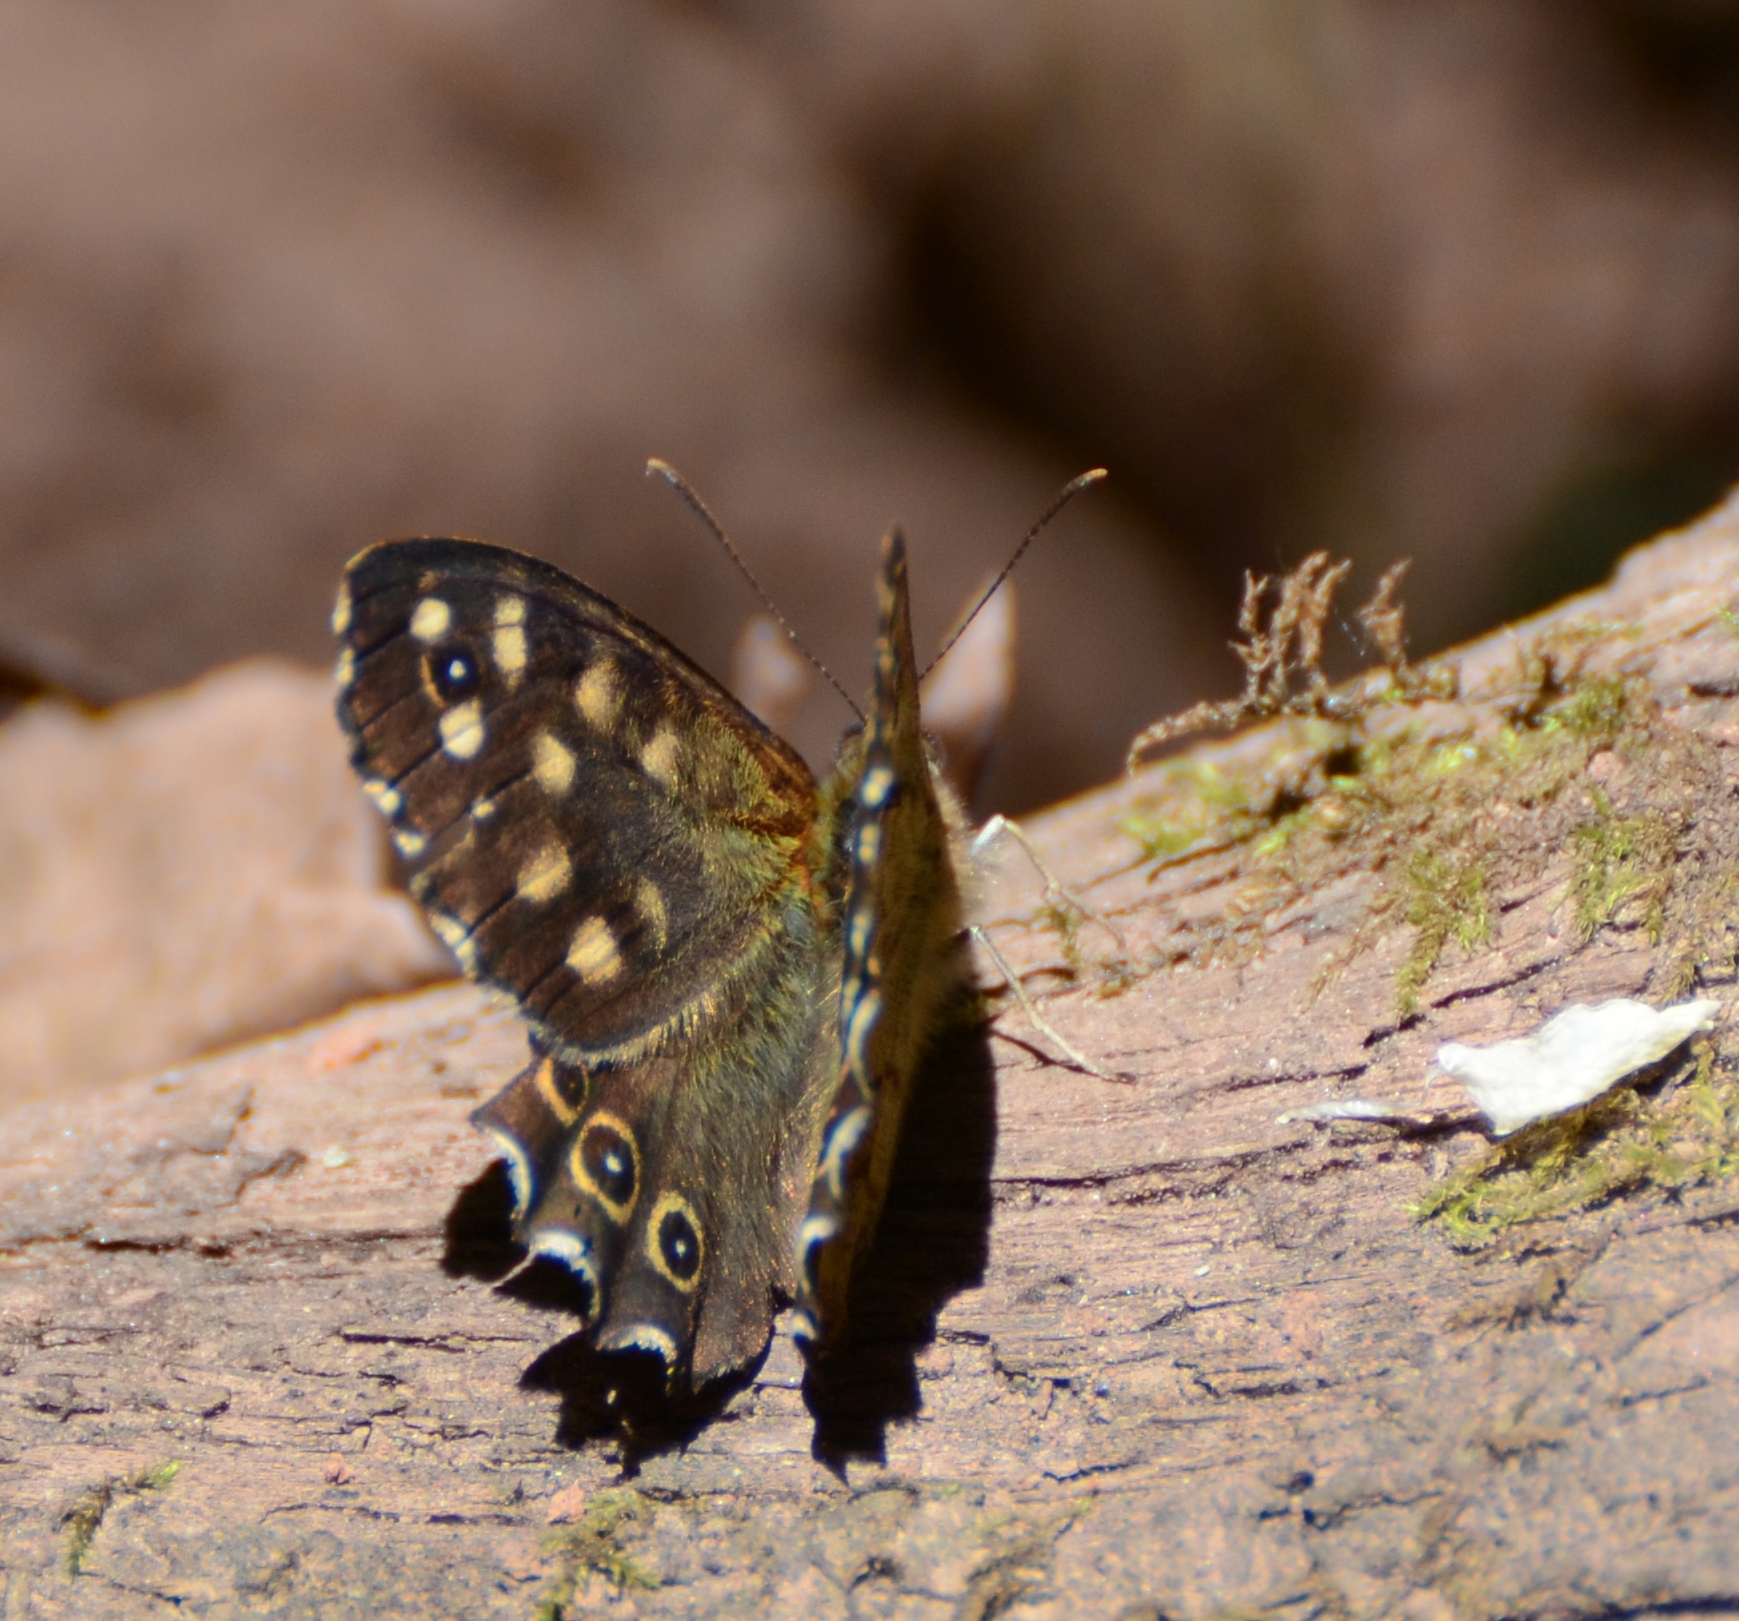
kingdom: Animalia
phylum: Arthropoda
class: Insecta
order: Lepidoptera
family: Nymphalidae
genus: Pararge
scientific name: Pararge aegeria
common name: Speckled wood
